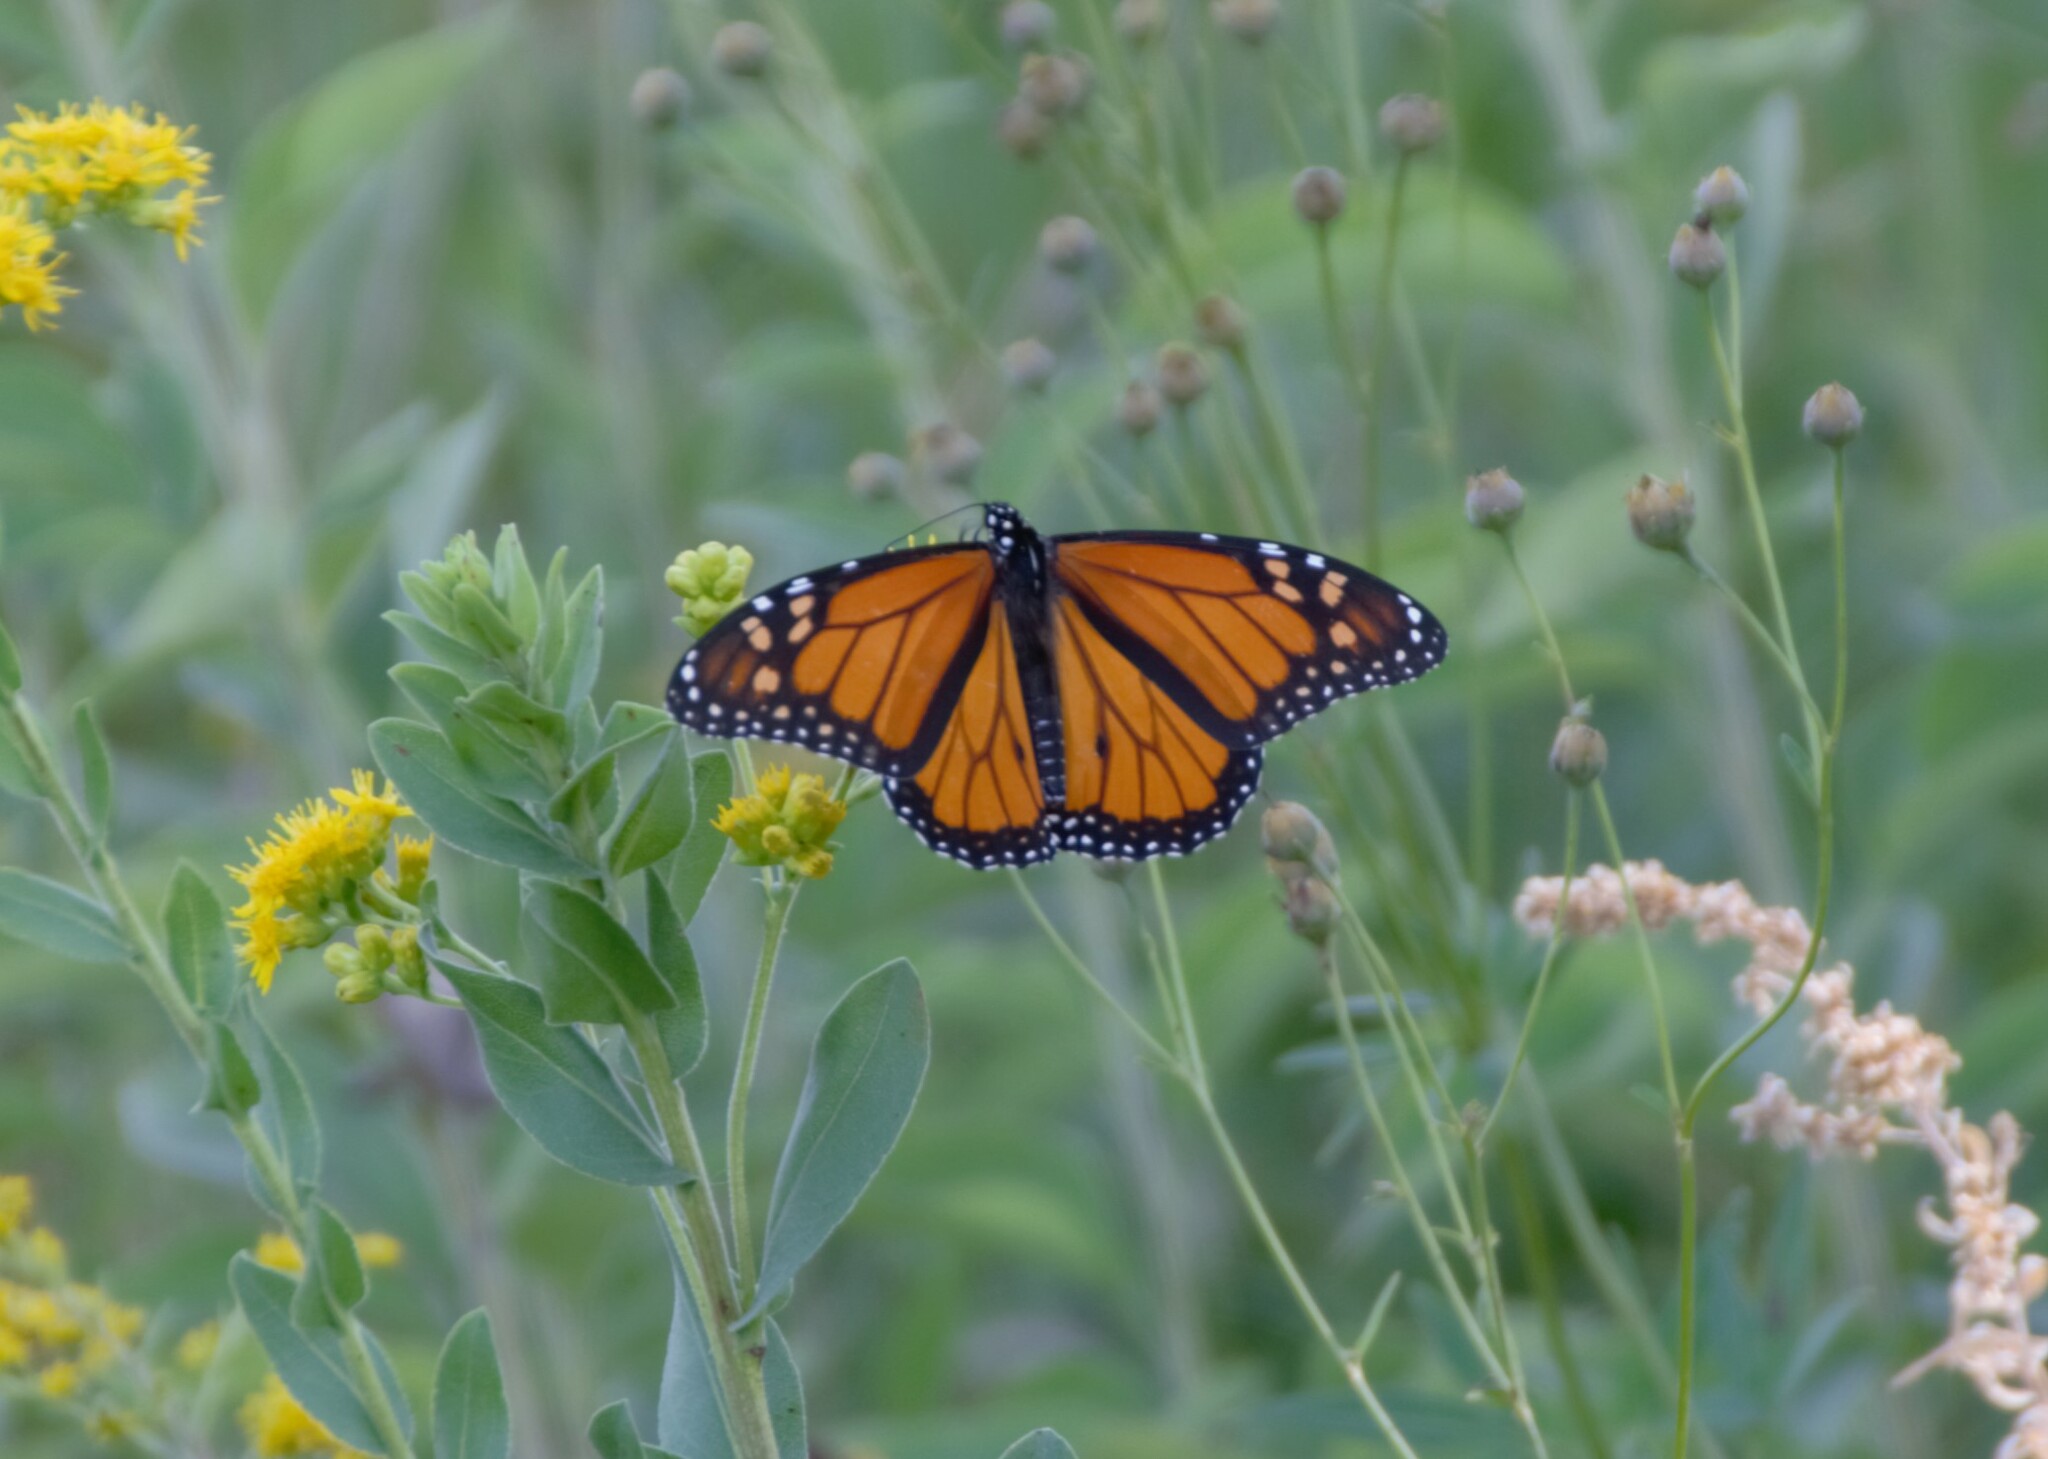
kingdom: Animalia
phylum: Arthropoda
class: Insecta
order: Lepidoptera
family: Nymphalidae
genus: Danaus
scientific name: Danaus plexippus
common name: Monarch
